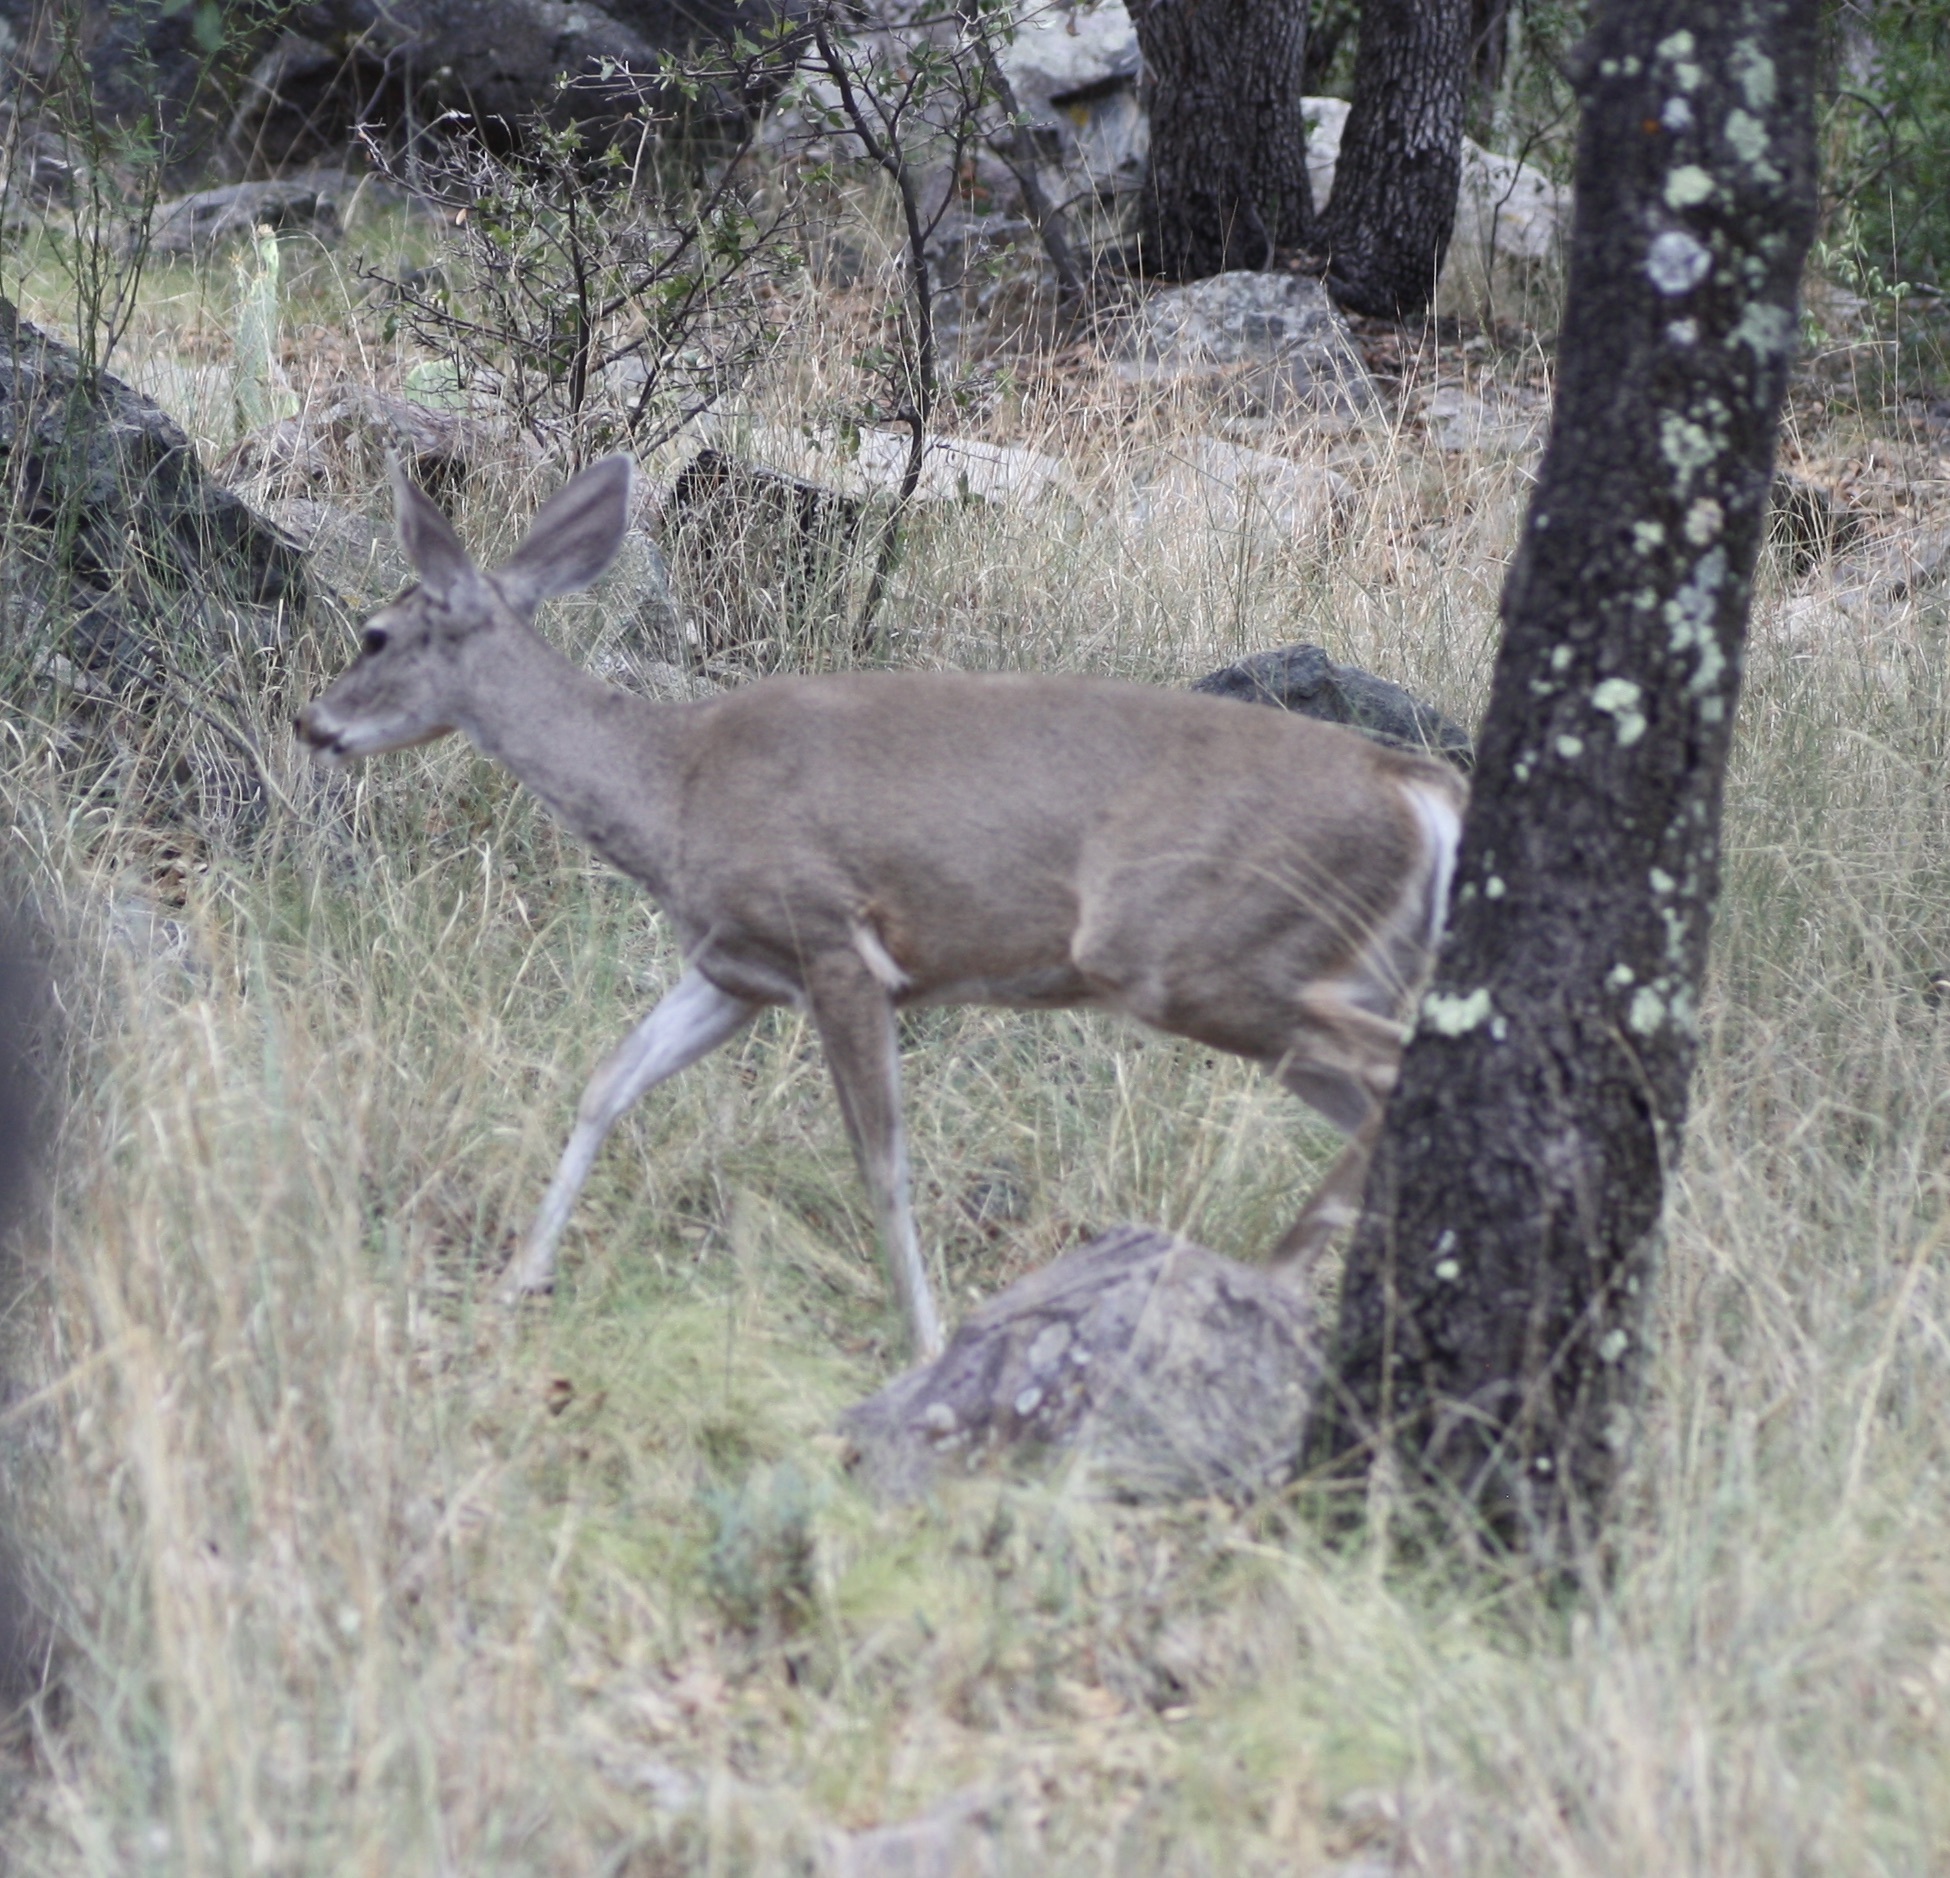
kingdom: Animalia
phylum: Chordata
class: Mammalia
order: Artiodactyla
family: Cervidae
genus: Odocoileus
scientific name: Odocoileus virginianus
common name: White-tailed deer
